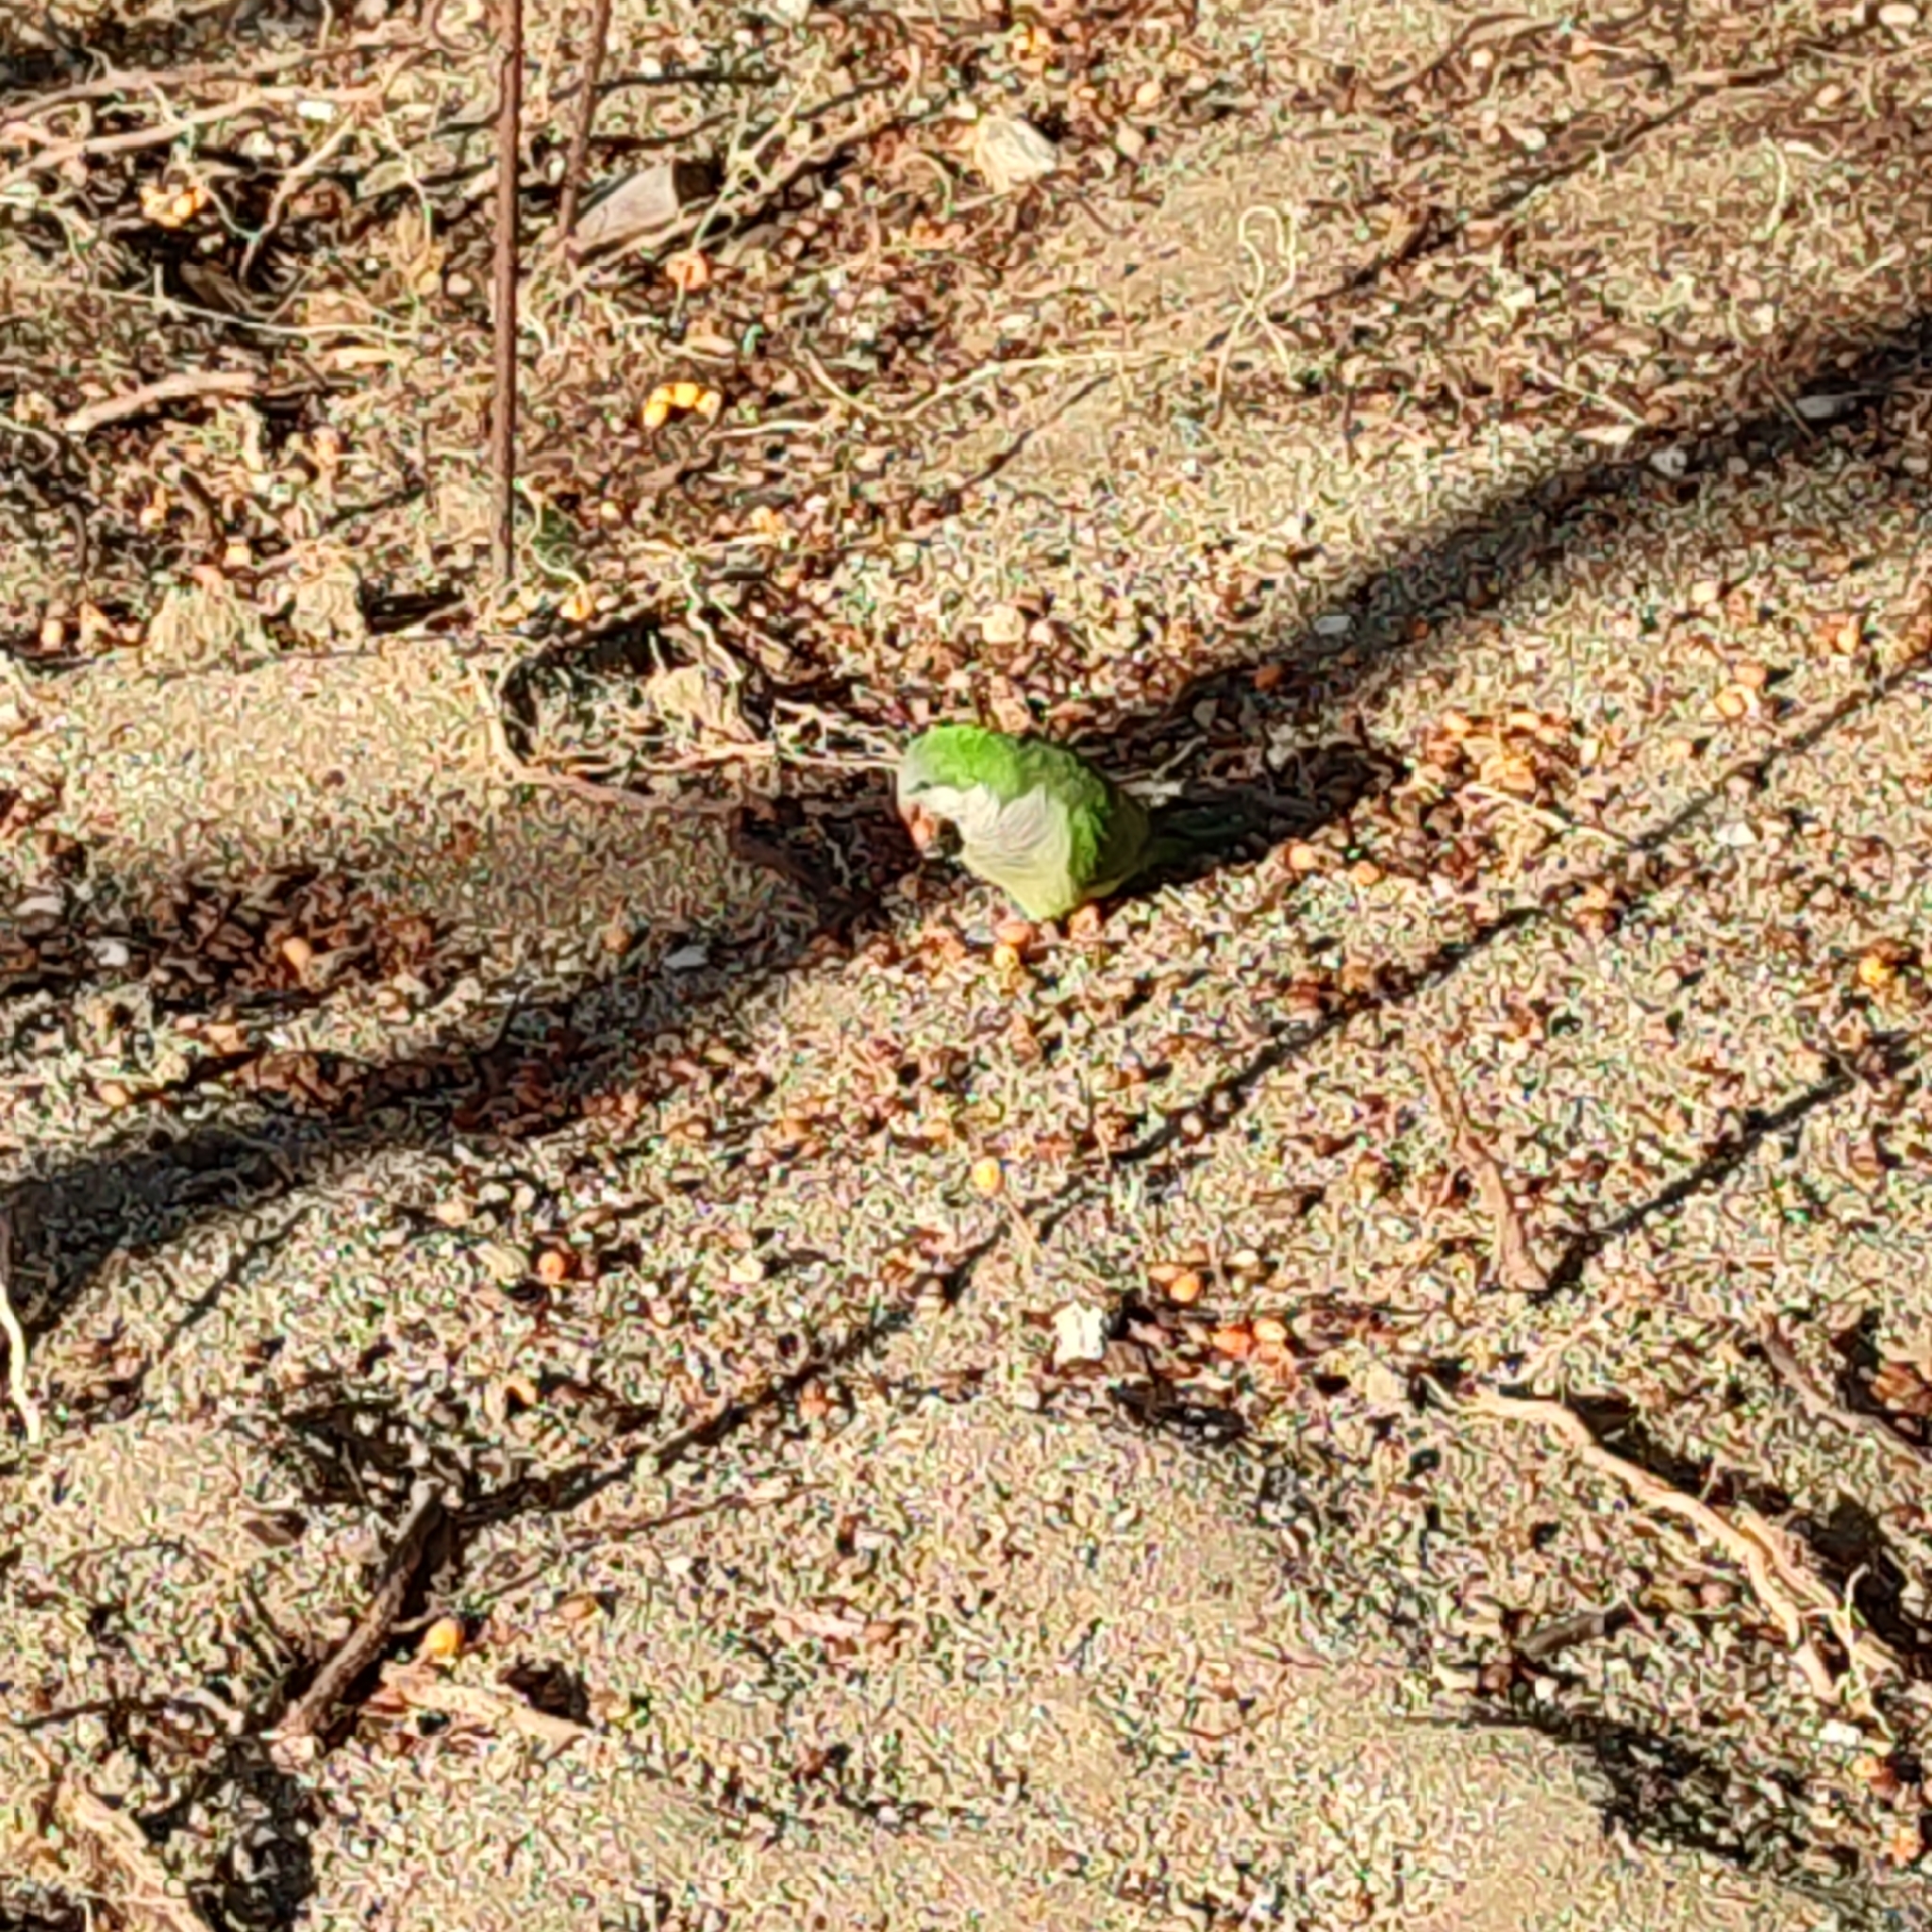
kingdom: Animalia
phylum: Chordata
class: Aves
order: Psittaciformes
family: Psittacidae
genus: Myiopsitta
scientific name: Myiopsitta monachus
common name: Monk parakeet
